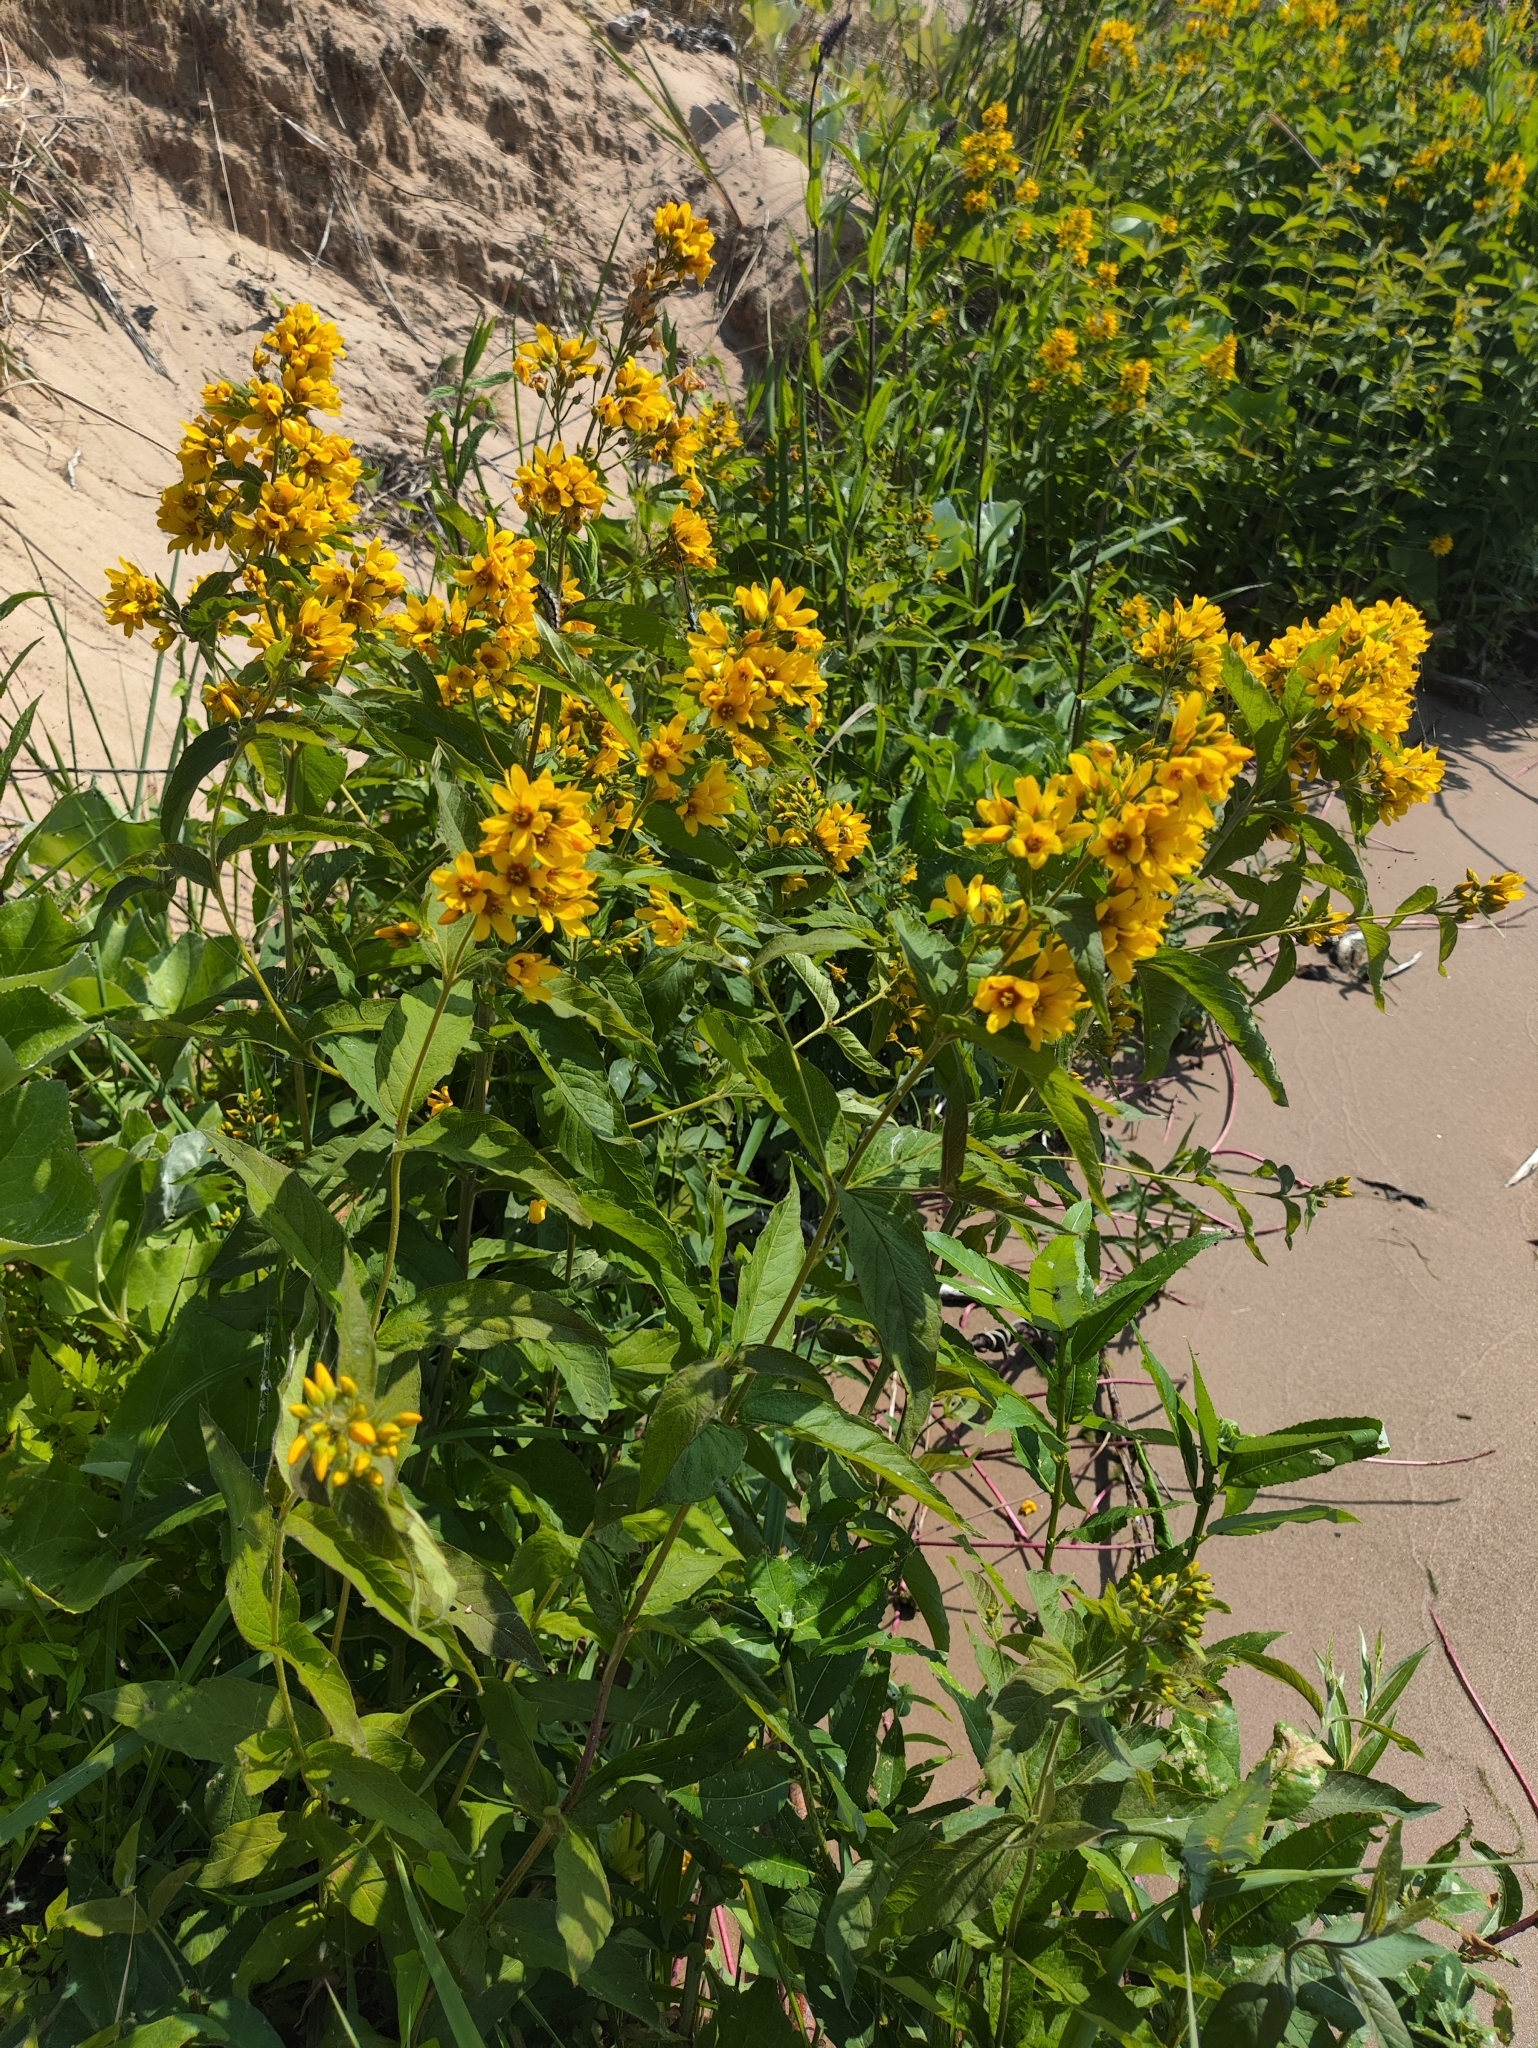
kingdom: Plantae
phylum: Tracheophyta
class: Magnoliopsida
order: Ericales
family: Primulaceae
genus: Lysimachia
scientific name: Lysimachia vulgaris
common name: Yellow loosestrife
